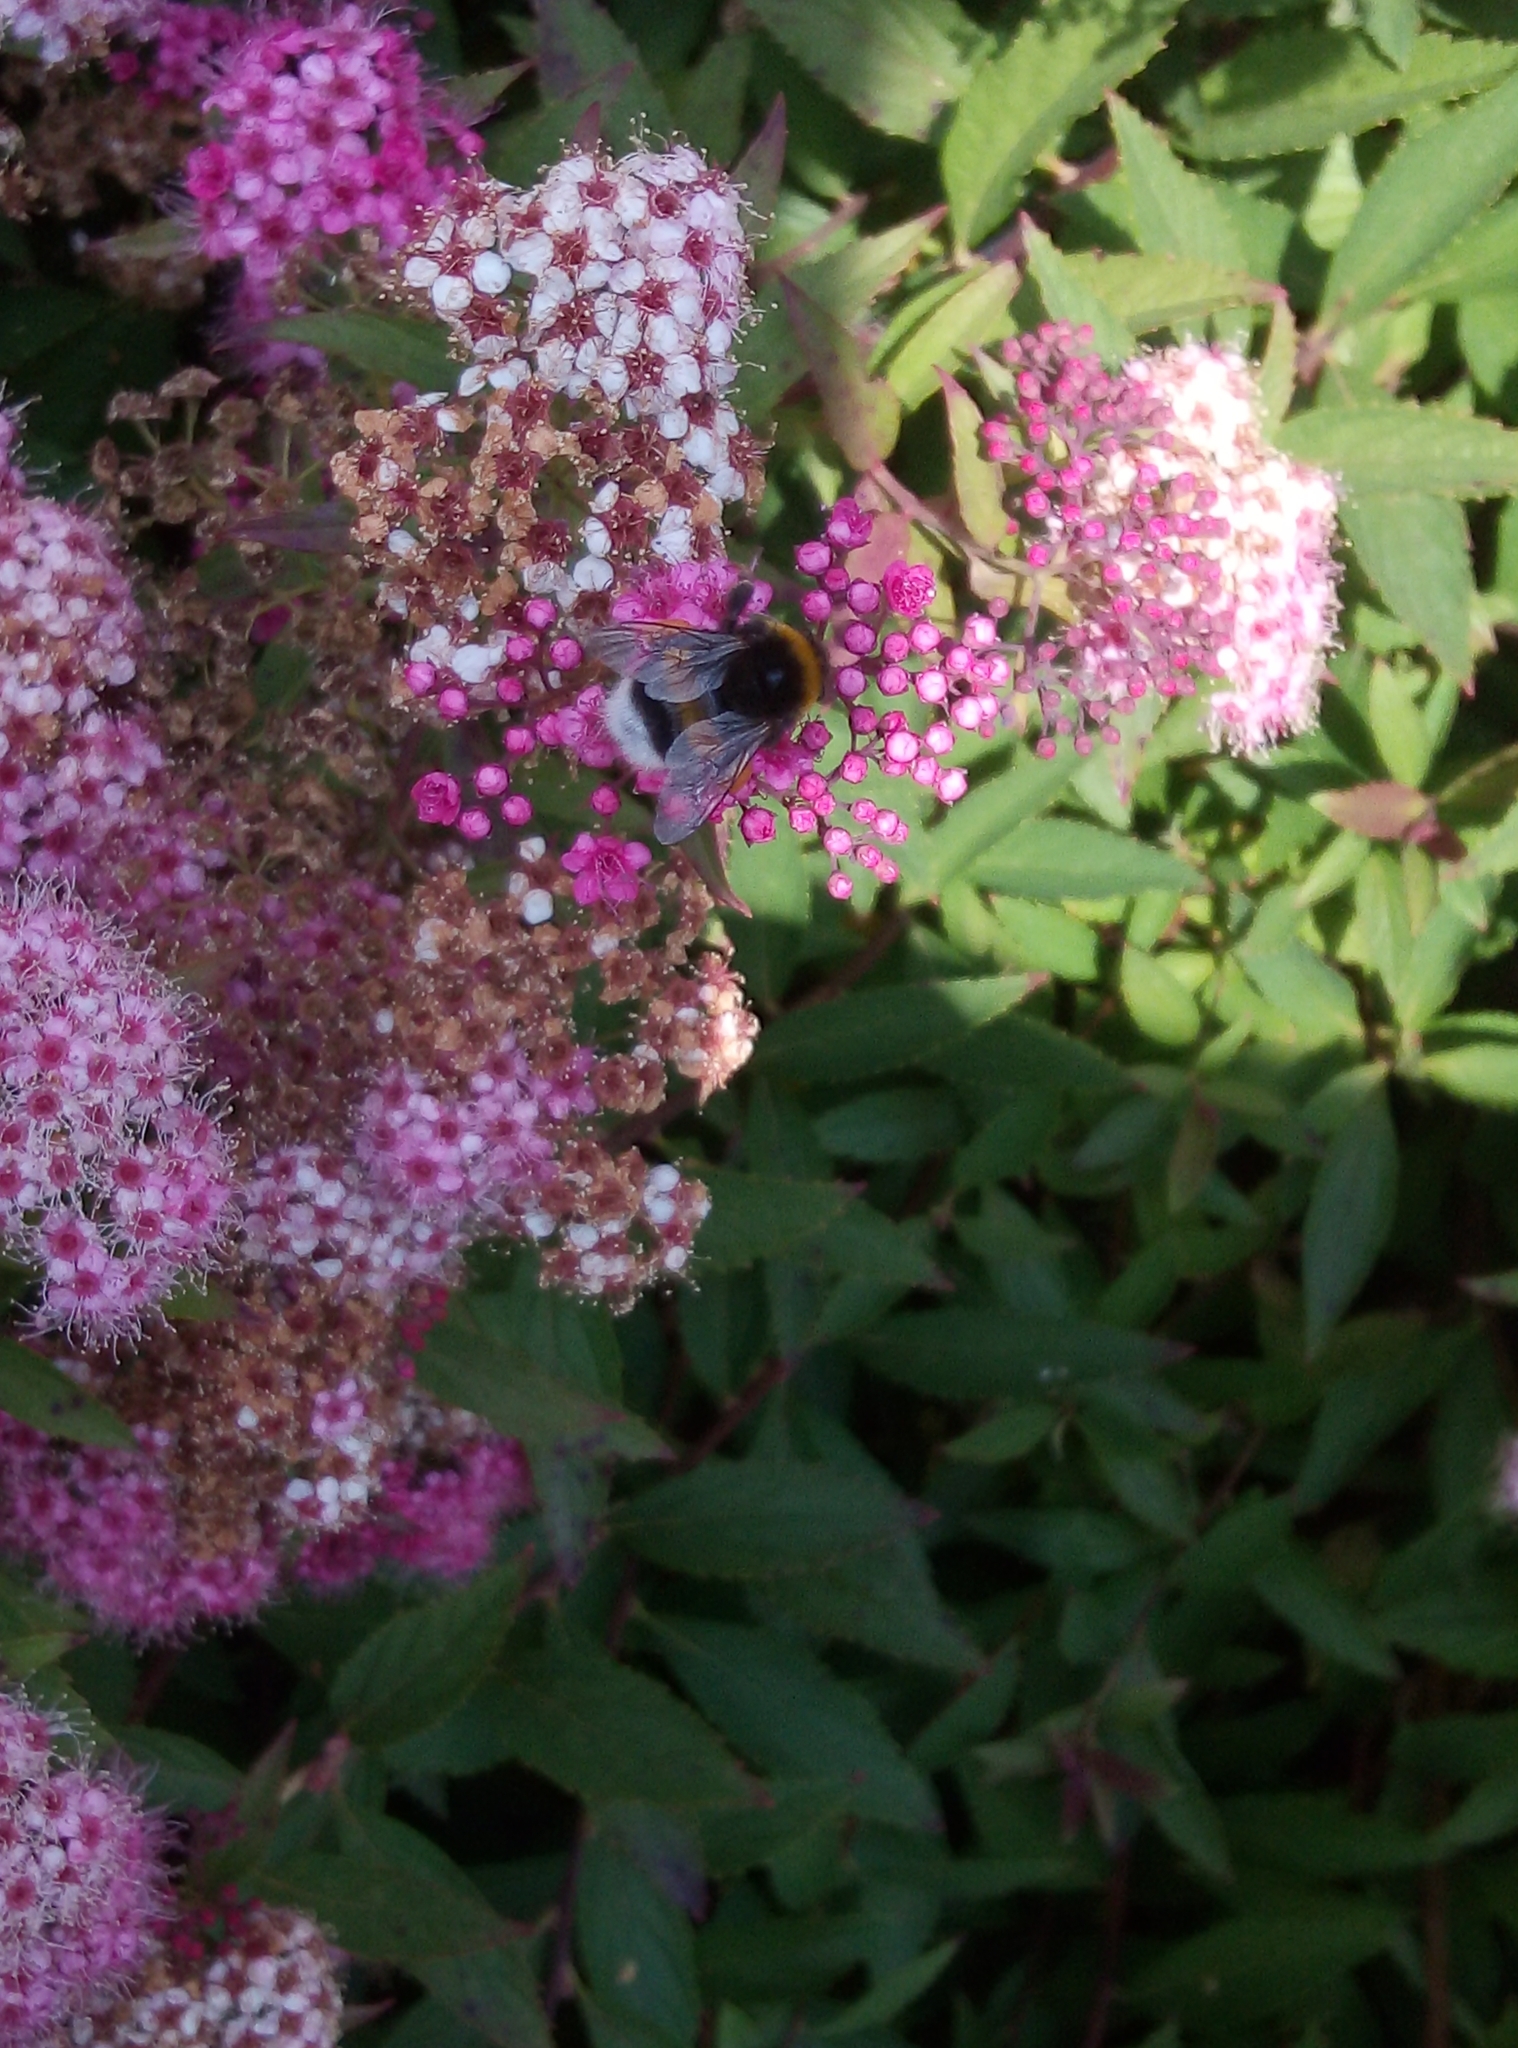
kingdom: Animalia
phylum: Arthropoda
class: Insecta
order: Hymenoptera
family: Apidae
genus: Bombus
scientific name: Bombus terrestris
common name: Buff-tailed bumblebee
